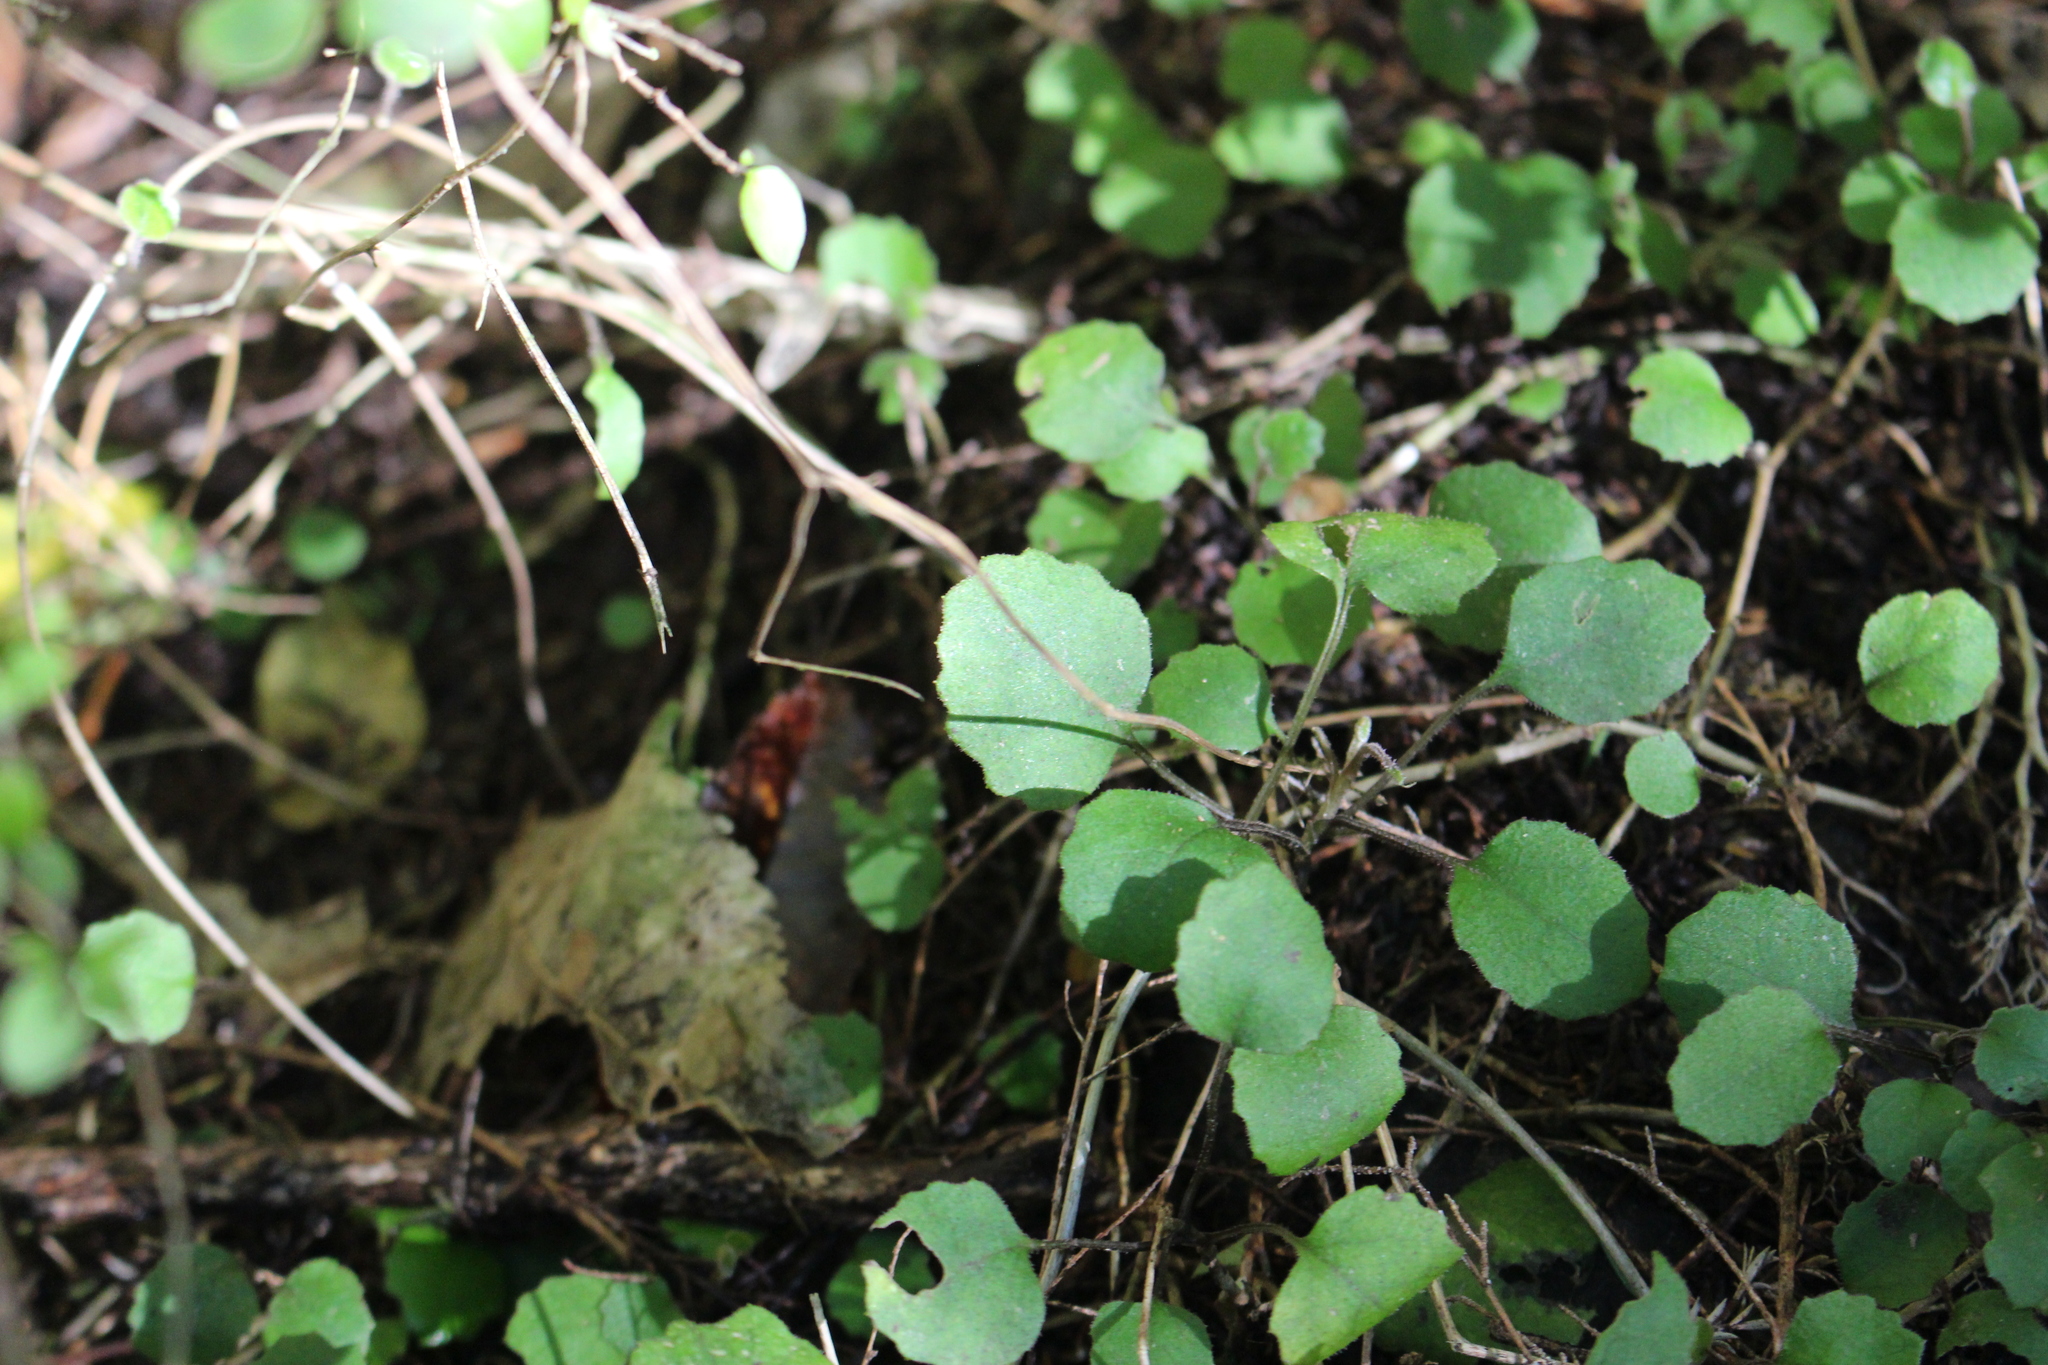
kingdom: Plantae
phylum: Tracheophyta
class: Magnoliopsida
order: Asterales
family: Asteraceae
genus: Brachyglottis
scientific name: Brachyglottis sciadophila
